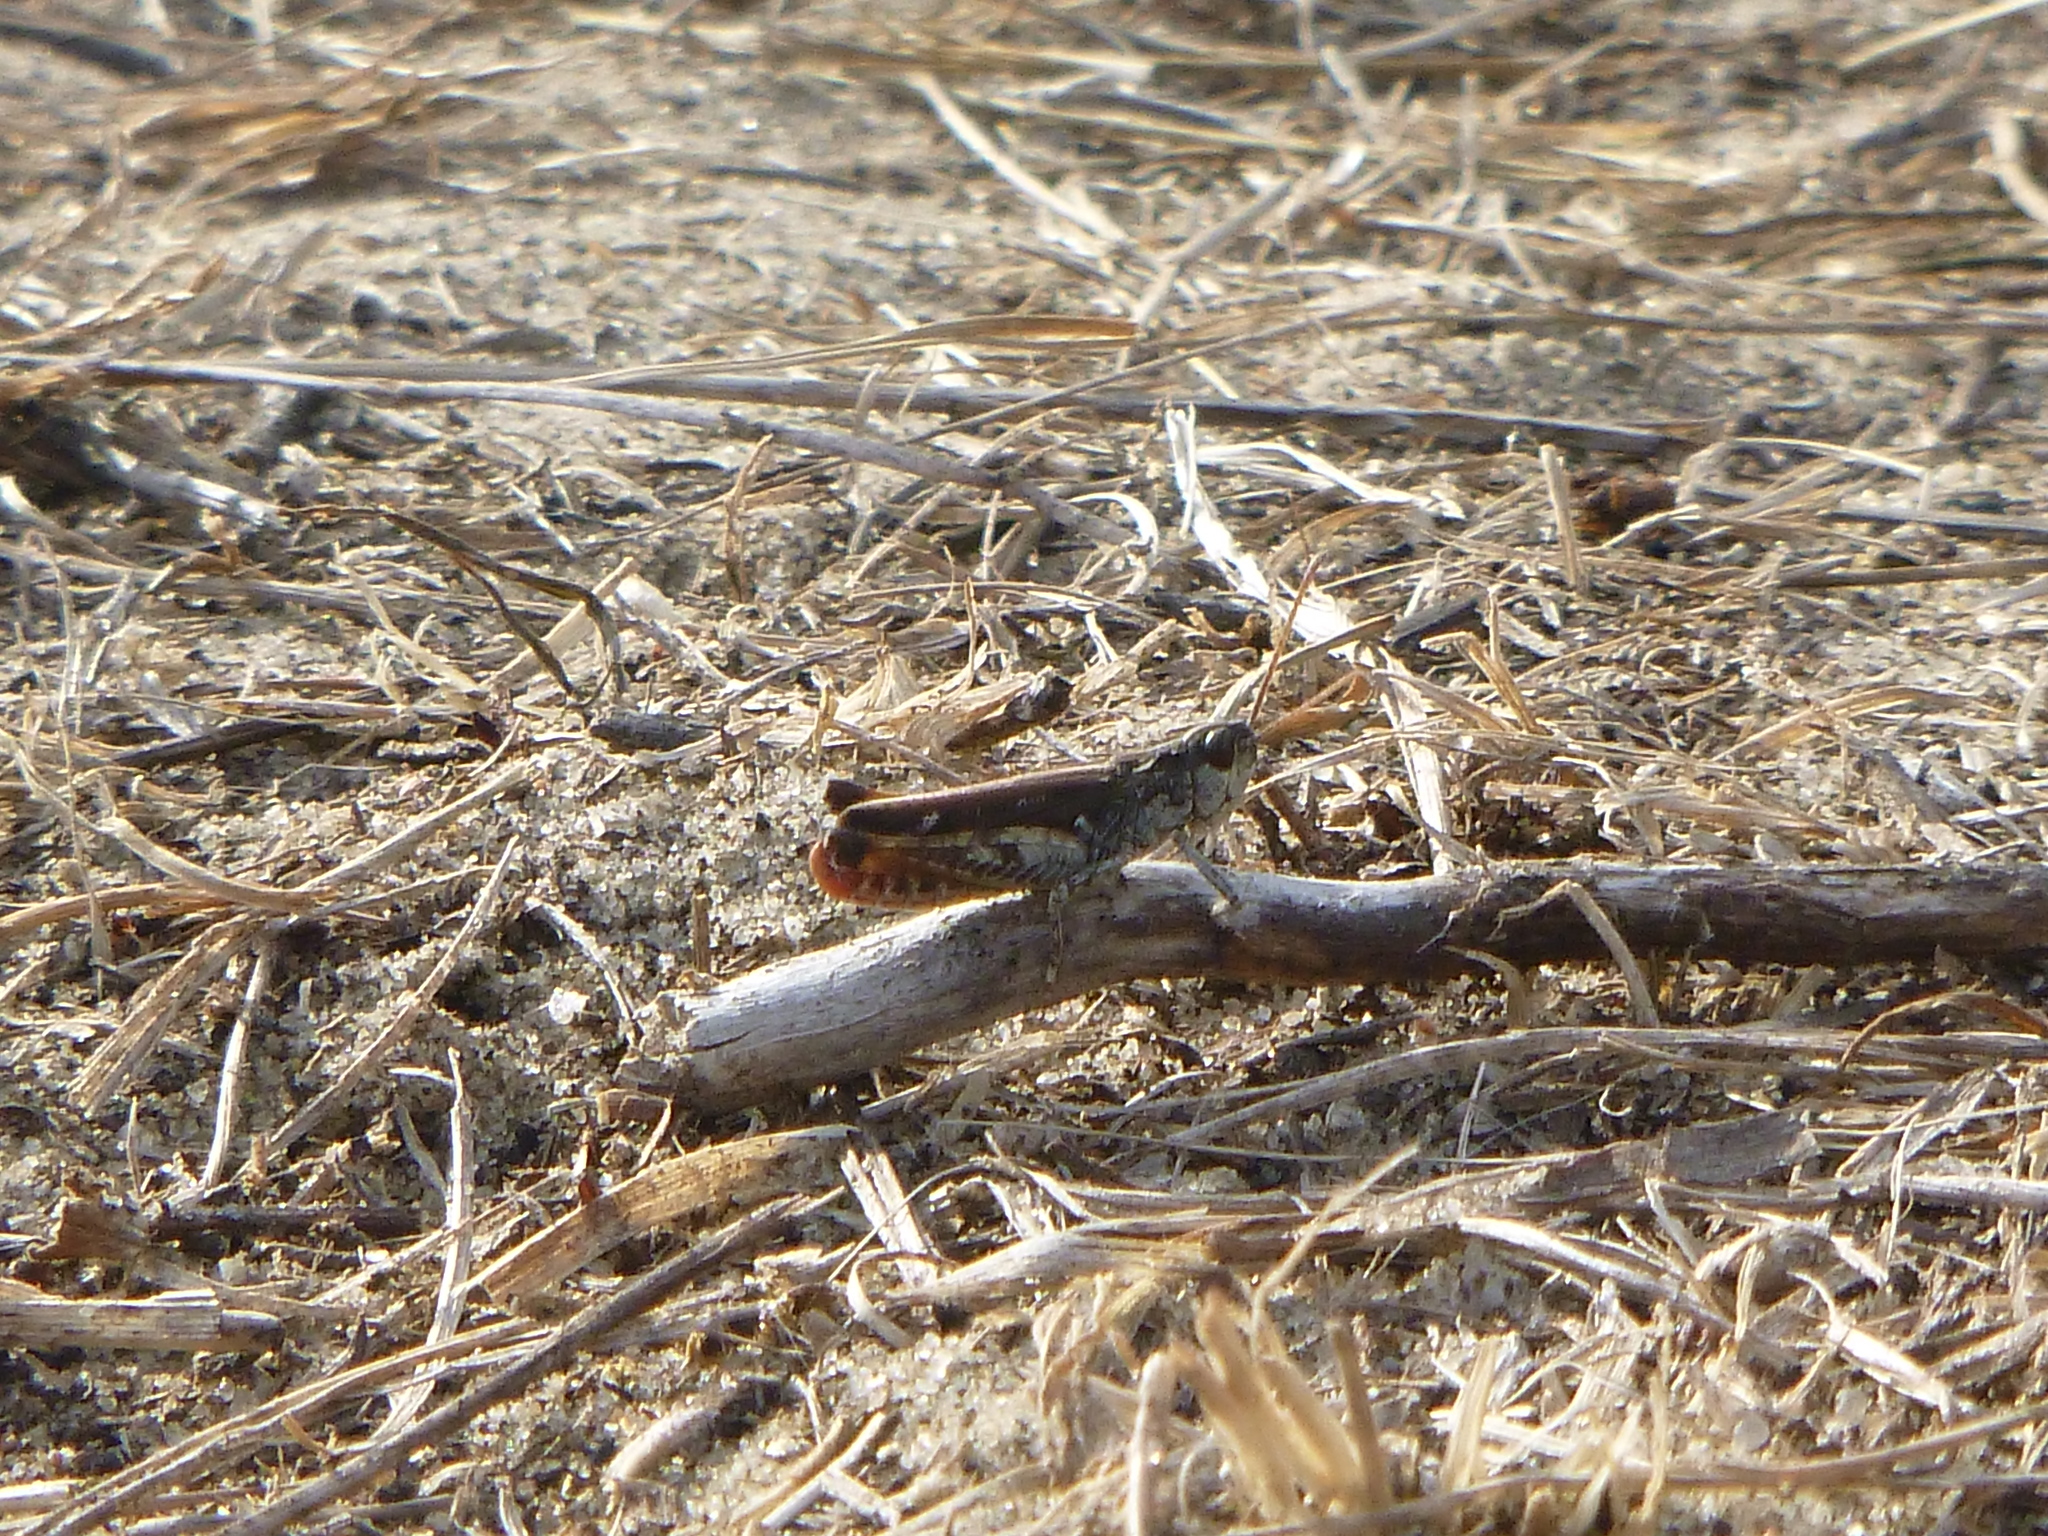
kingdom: Animalia
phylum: Arthropoda
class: Insecta
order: Orthoptera
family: Acrididae
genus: Myrmeleotettix
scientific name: Myrmeleotettix maculatus
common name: Mottled grasshopper
